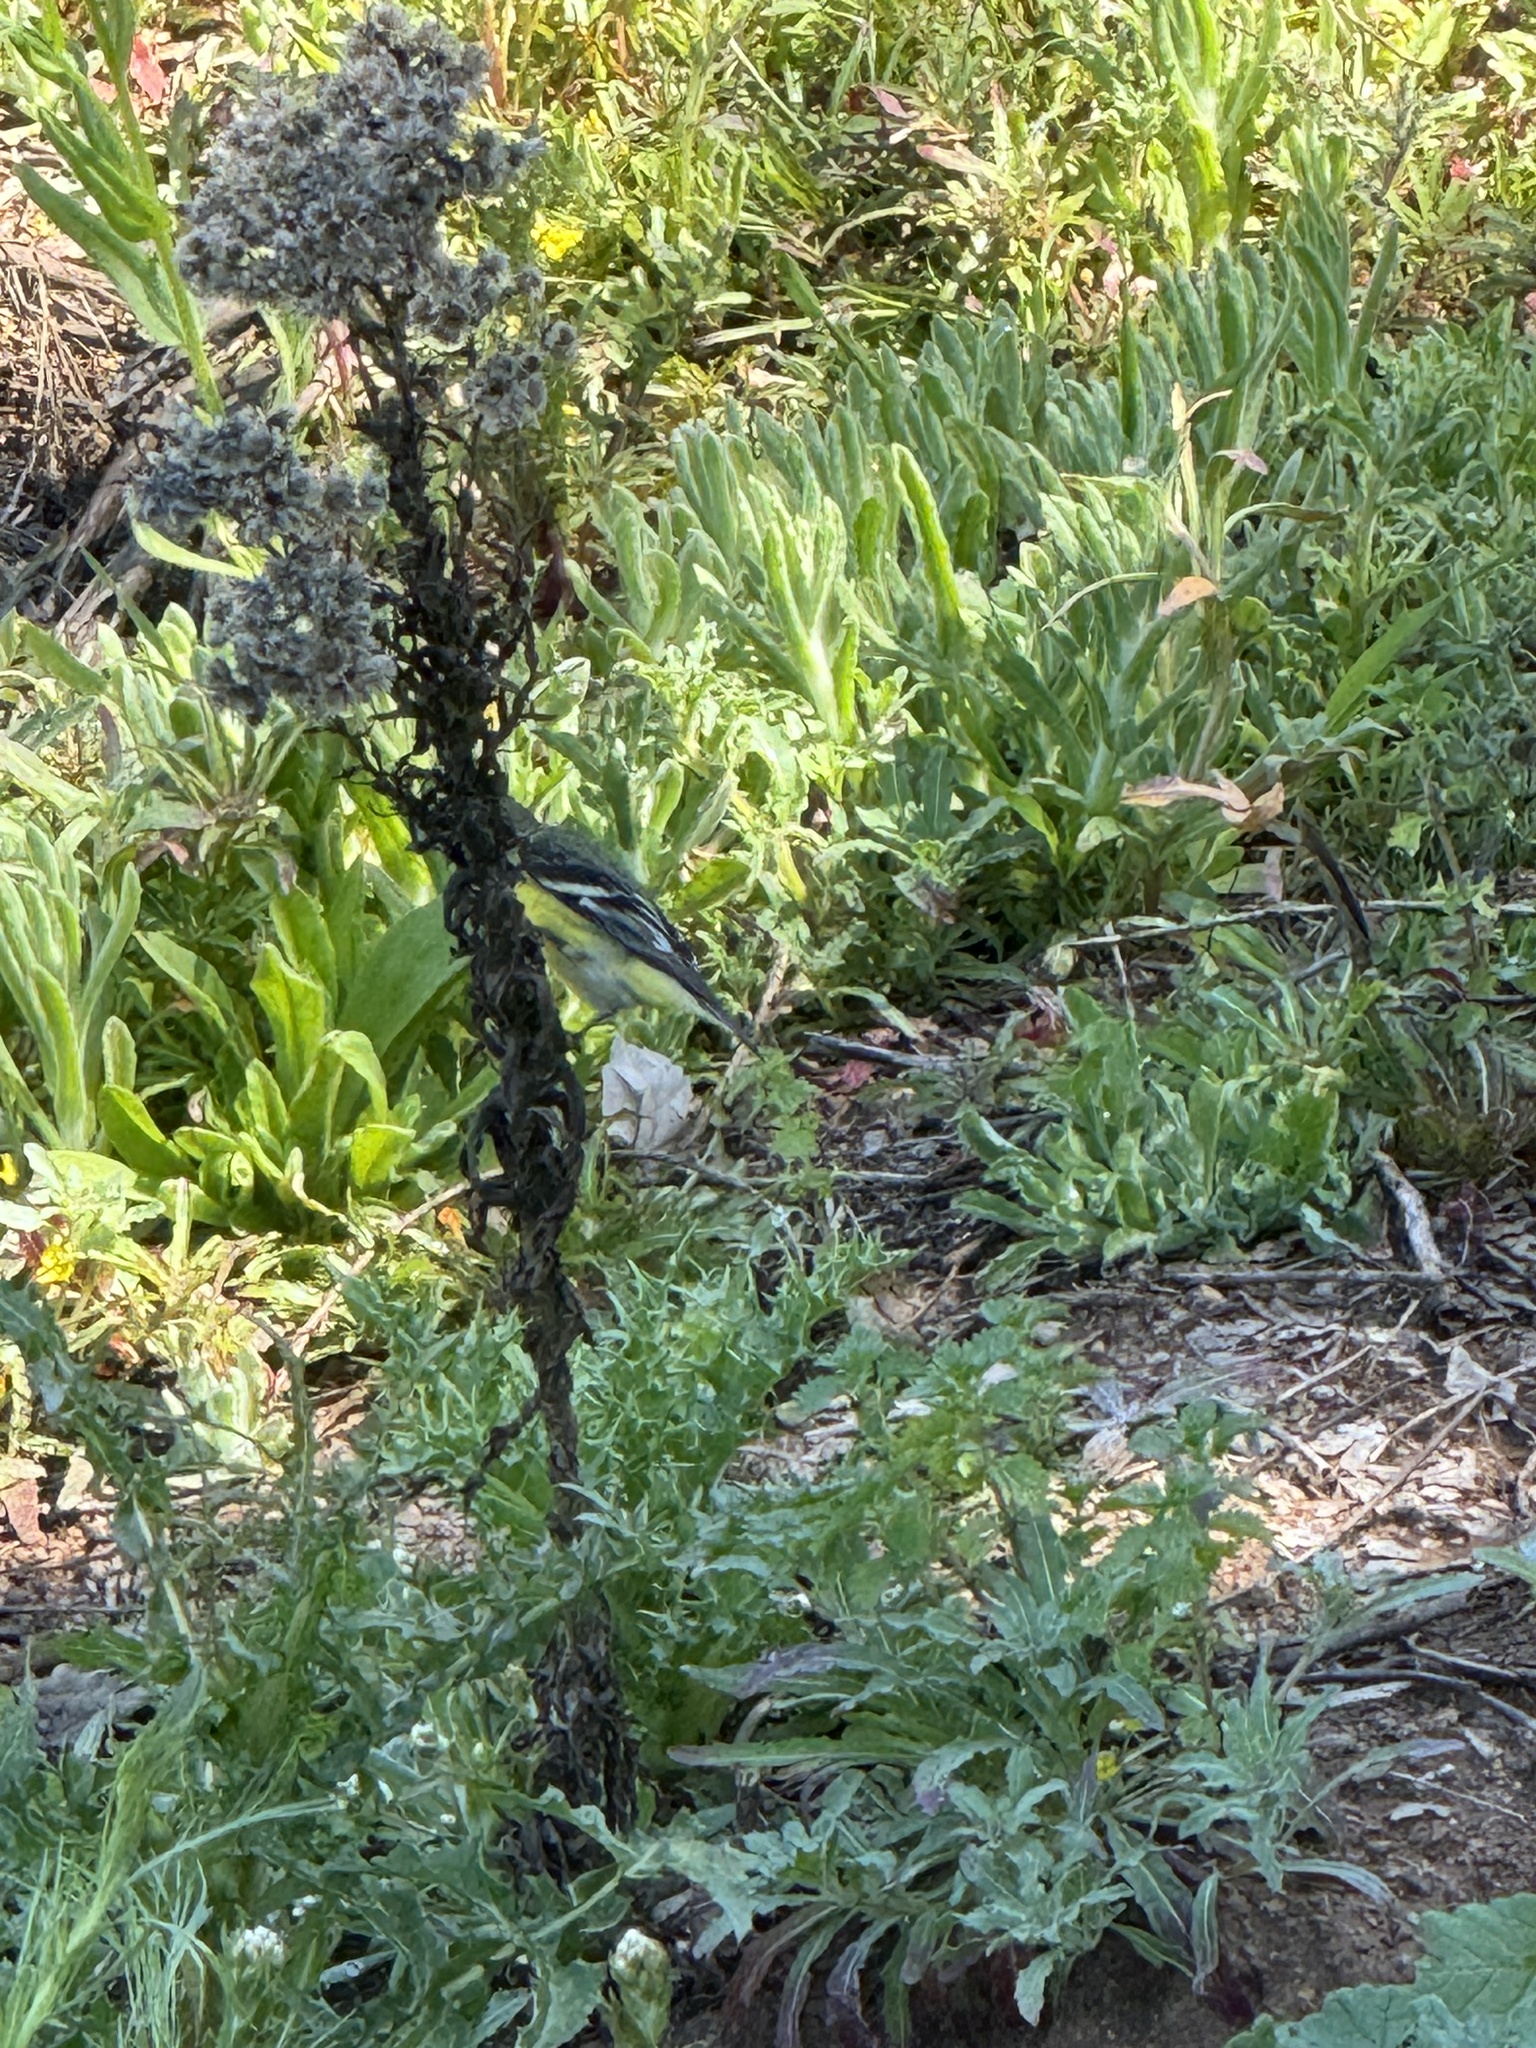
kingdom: Animalia
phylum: Chordata
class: Aves
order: Passeriformes
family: Fringillidae
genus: Spinus
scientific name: Spinus psaltria
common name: Lesser goldfinch
